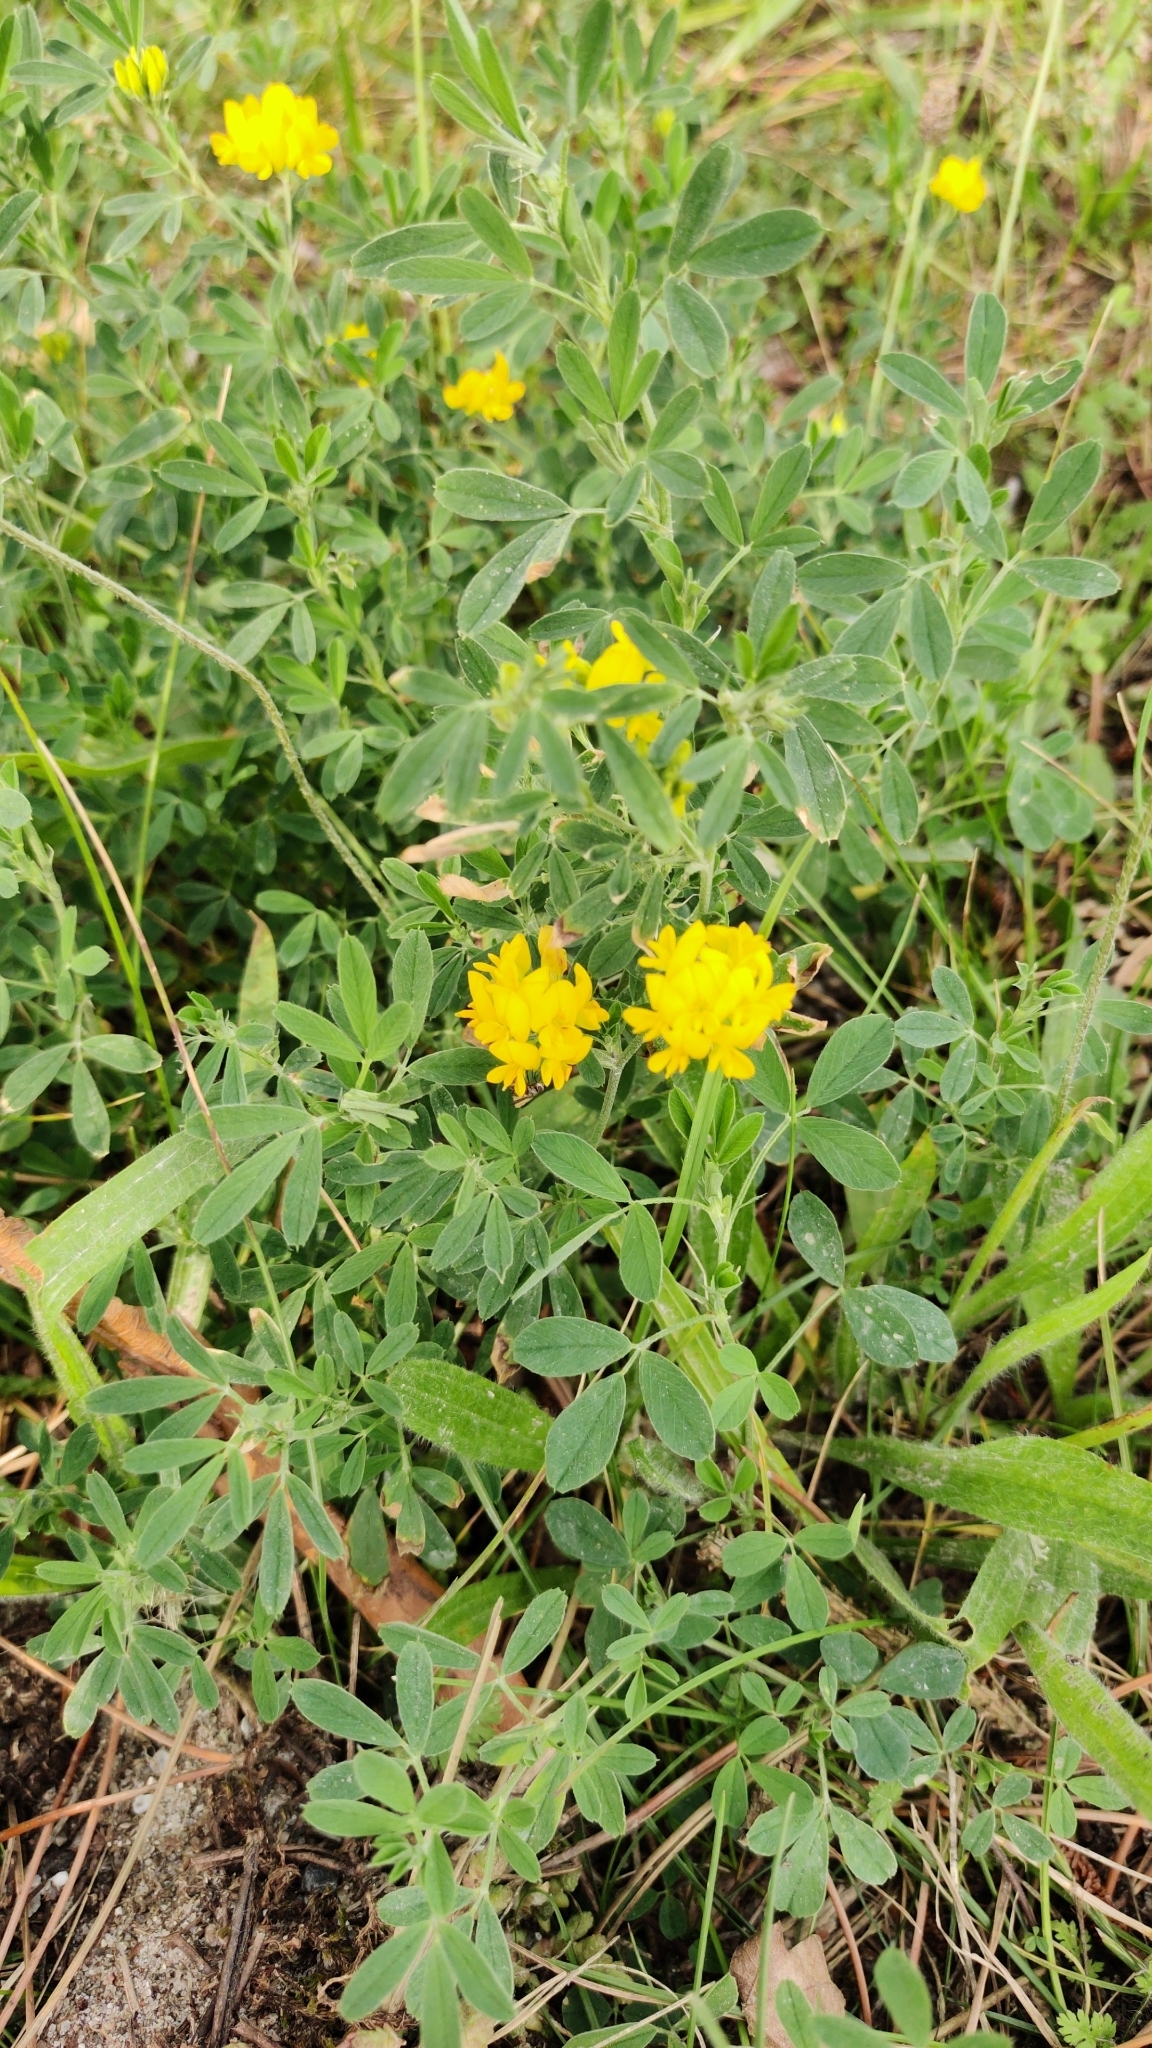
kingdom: Plantae
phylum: Tracheophyta
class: Magnoliopsida
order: Fabales
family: Fabaceae
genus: Medicago
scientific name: Medicago falcata
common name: Sickle medick
